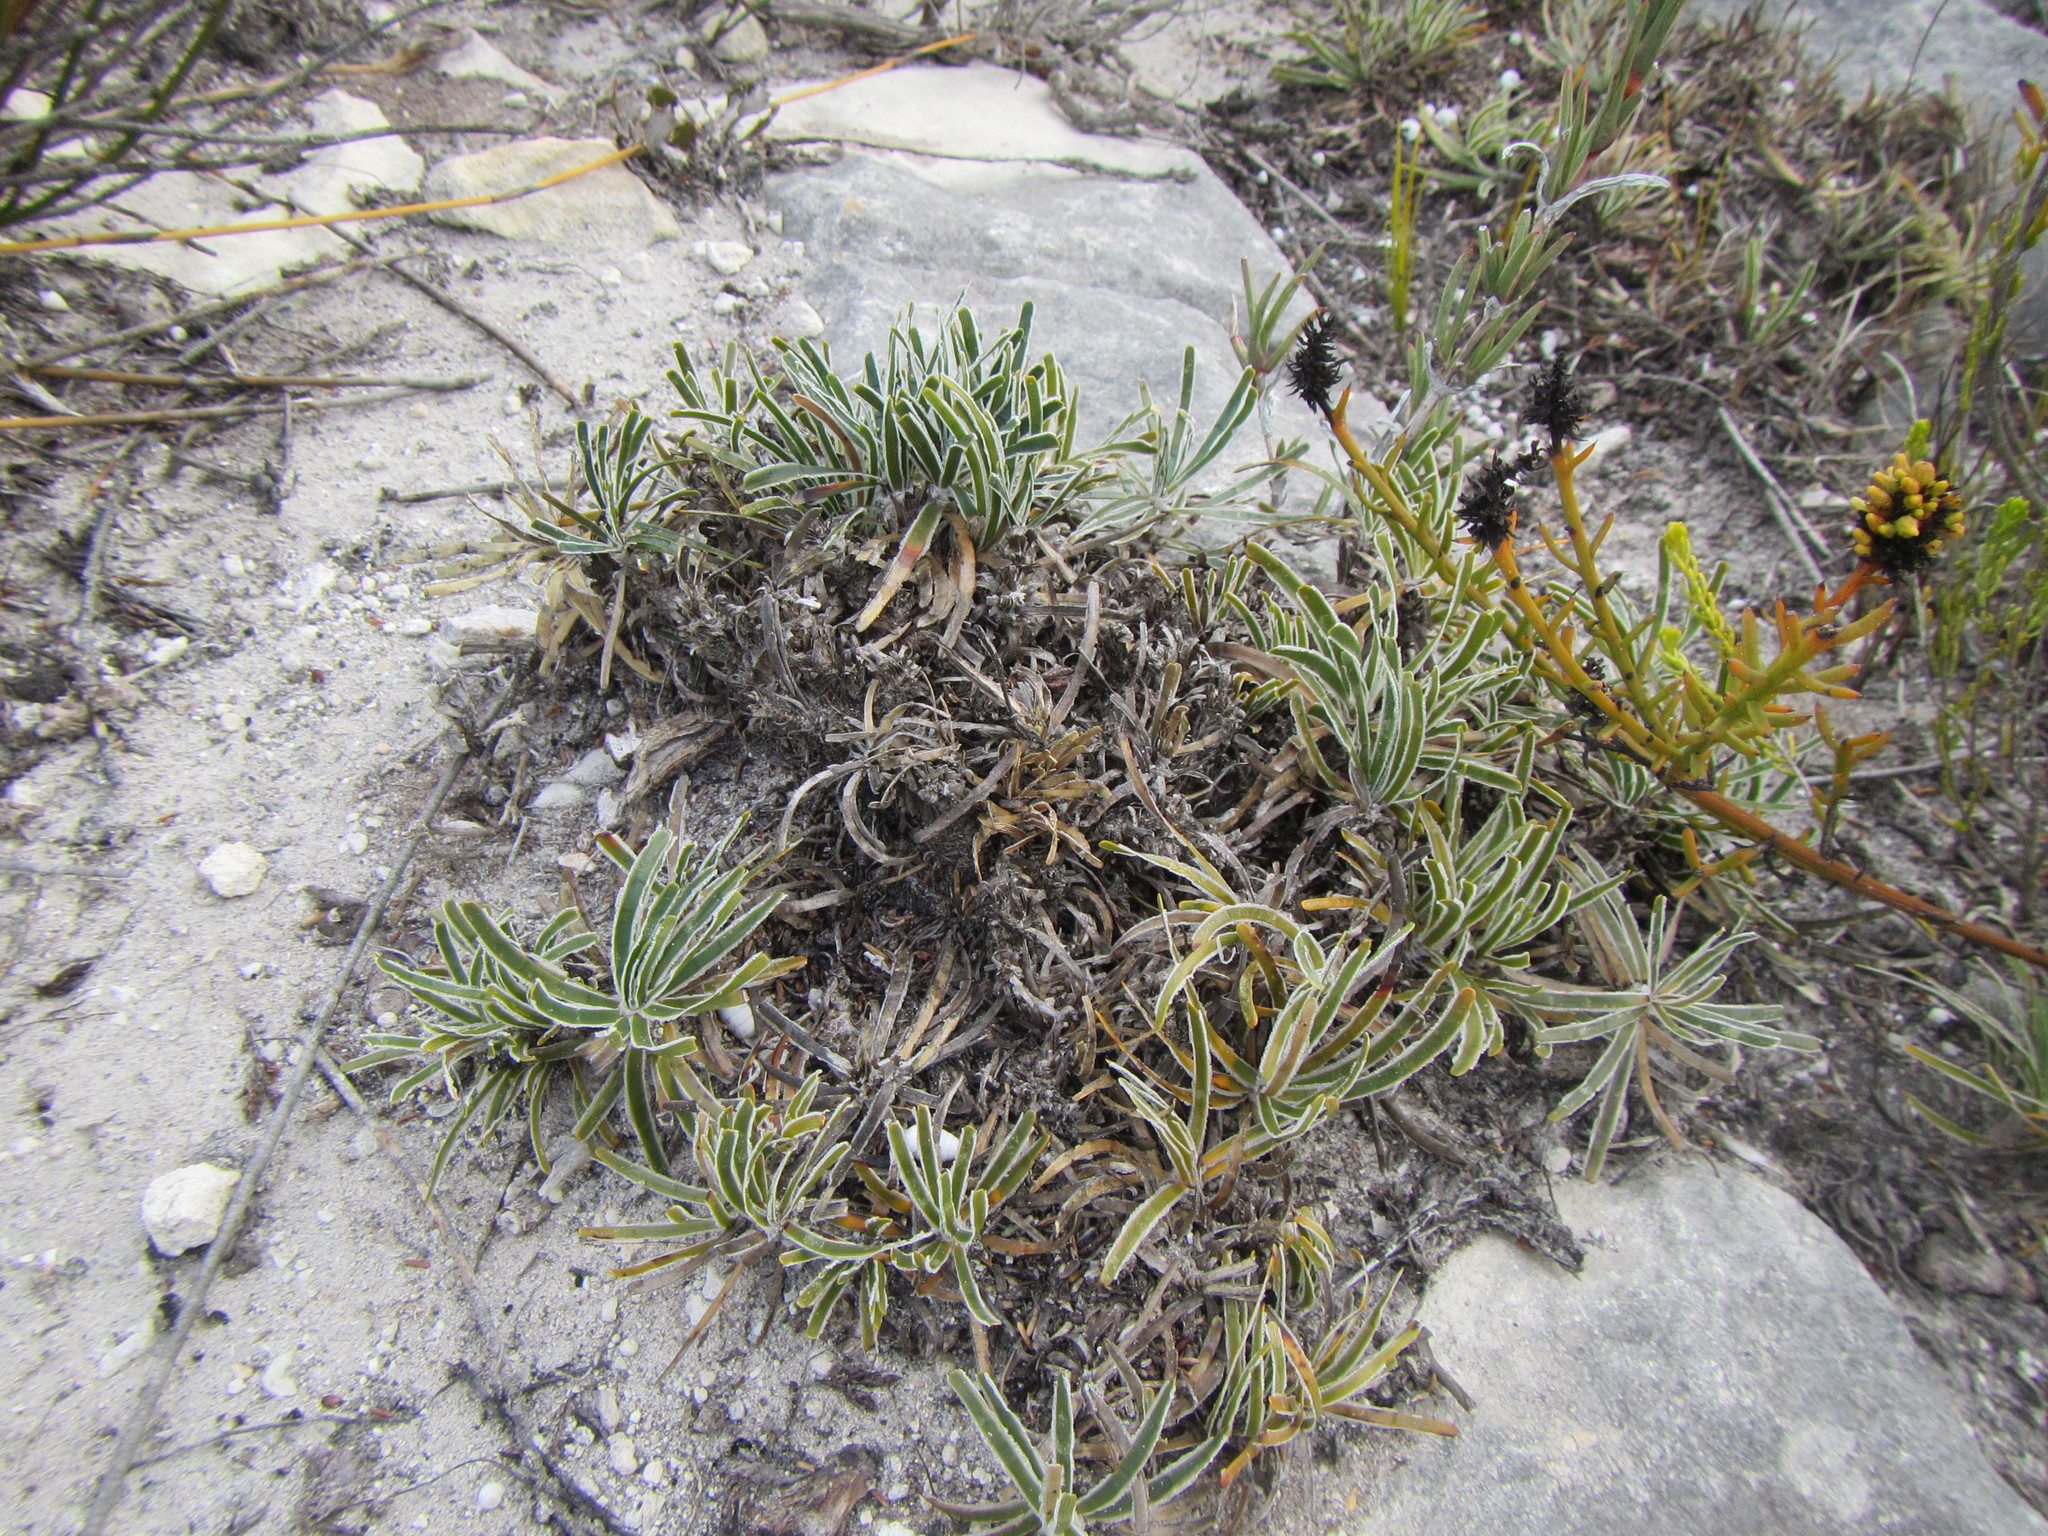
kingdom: Plantae
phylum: Tracheophyta
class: Liliopsida
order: Poales
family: Cyperaceae
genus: Ficinia
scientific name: Ficinia truncata
